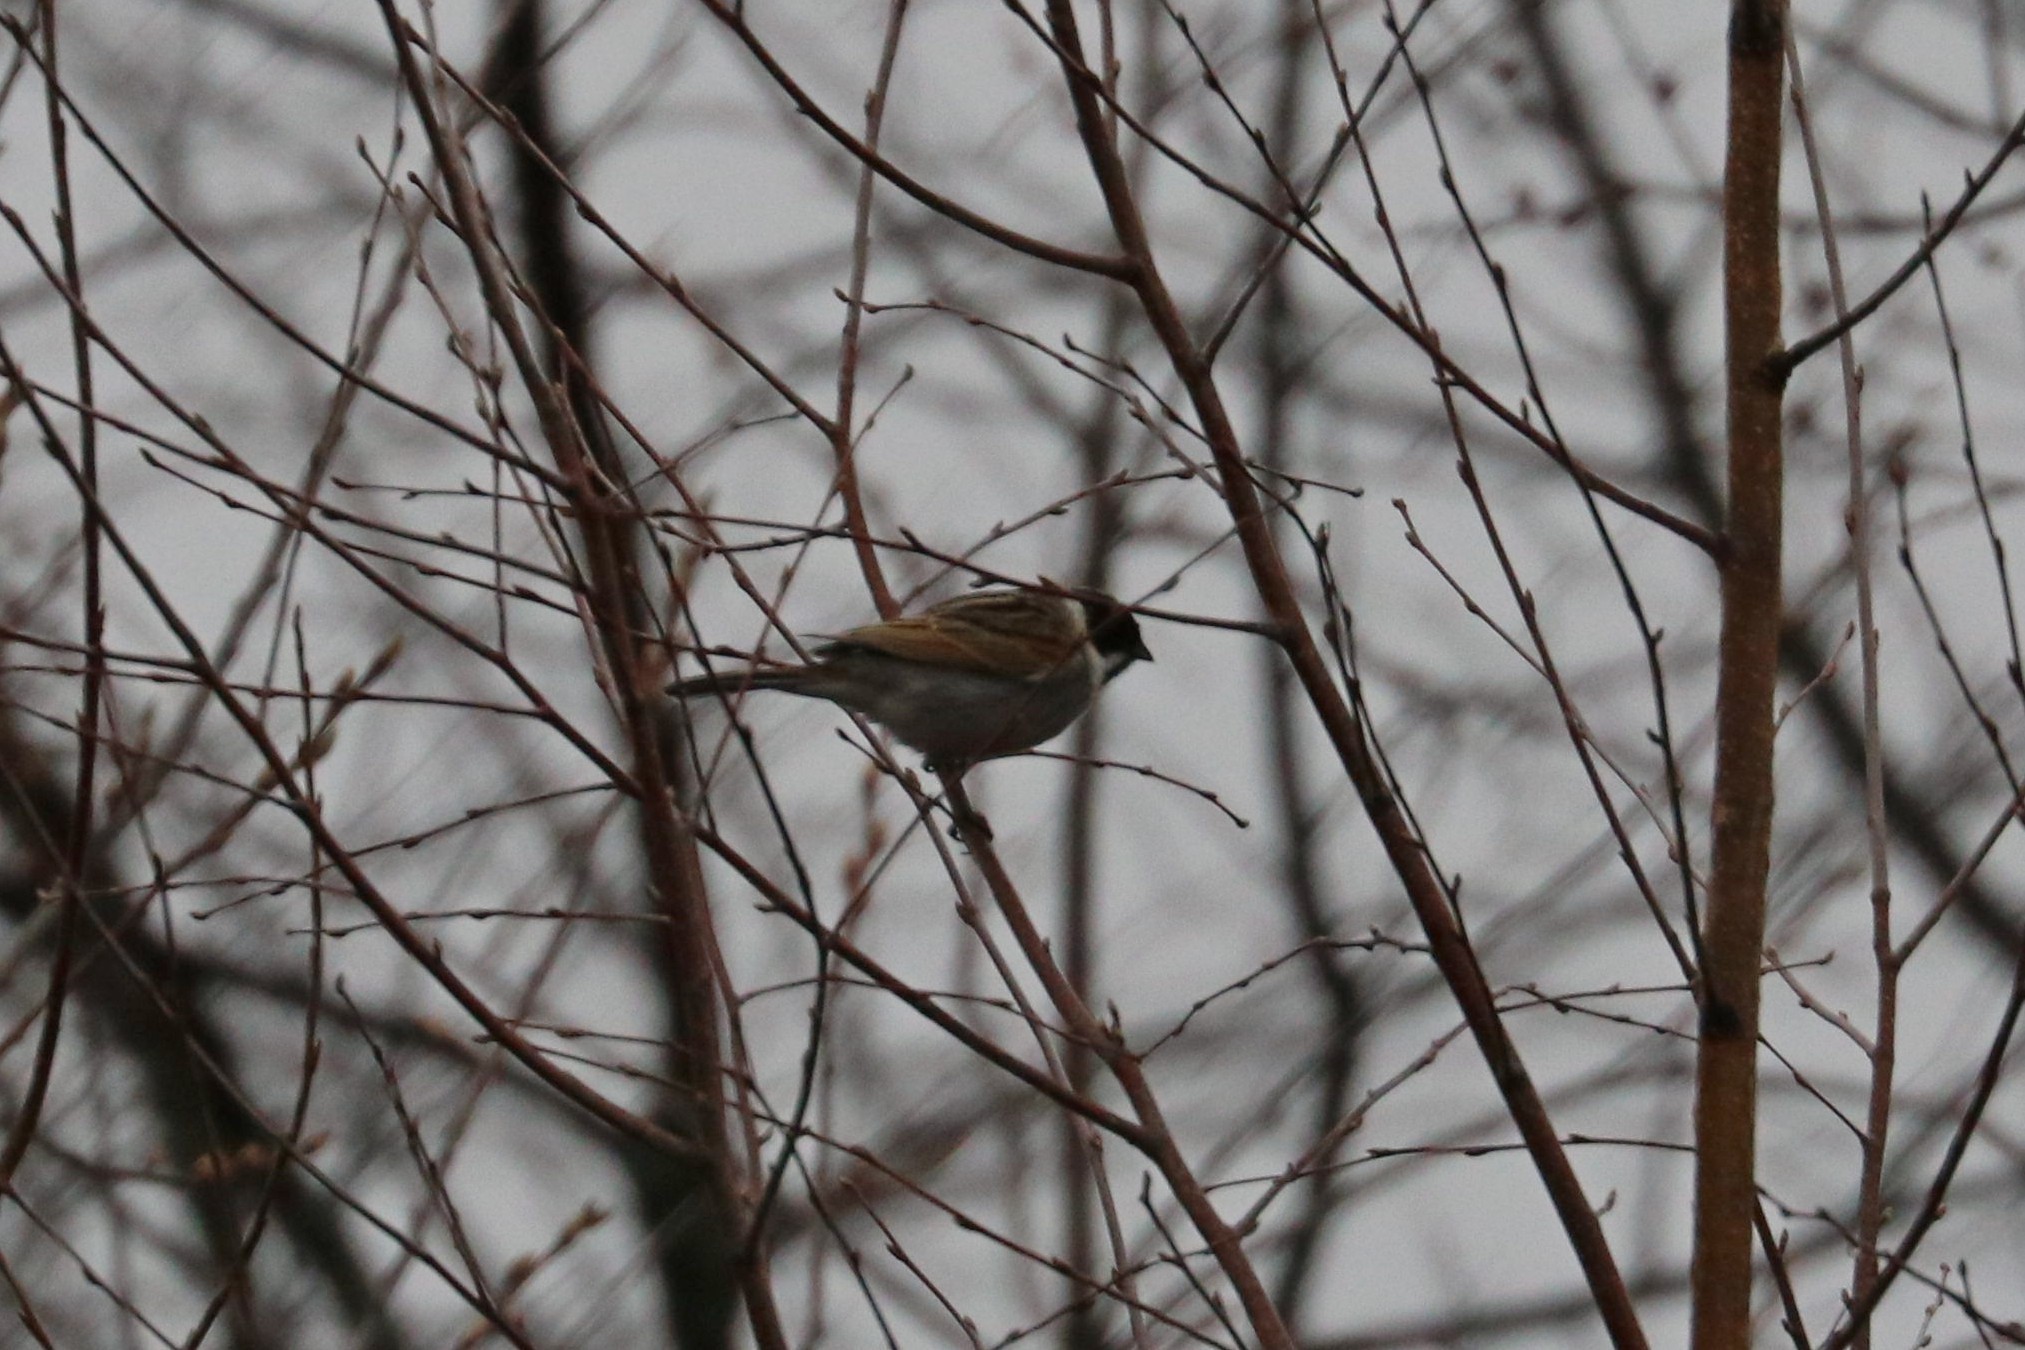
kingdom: Animalia
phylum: Chordata
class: Aves
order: Passeriformes
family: Emberizidae
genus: Emberiza
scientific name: Emberiza schoeniclus
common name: Reed bunting
